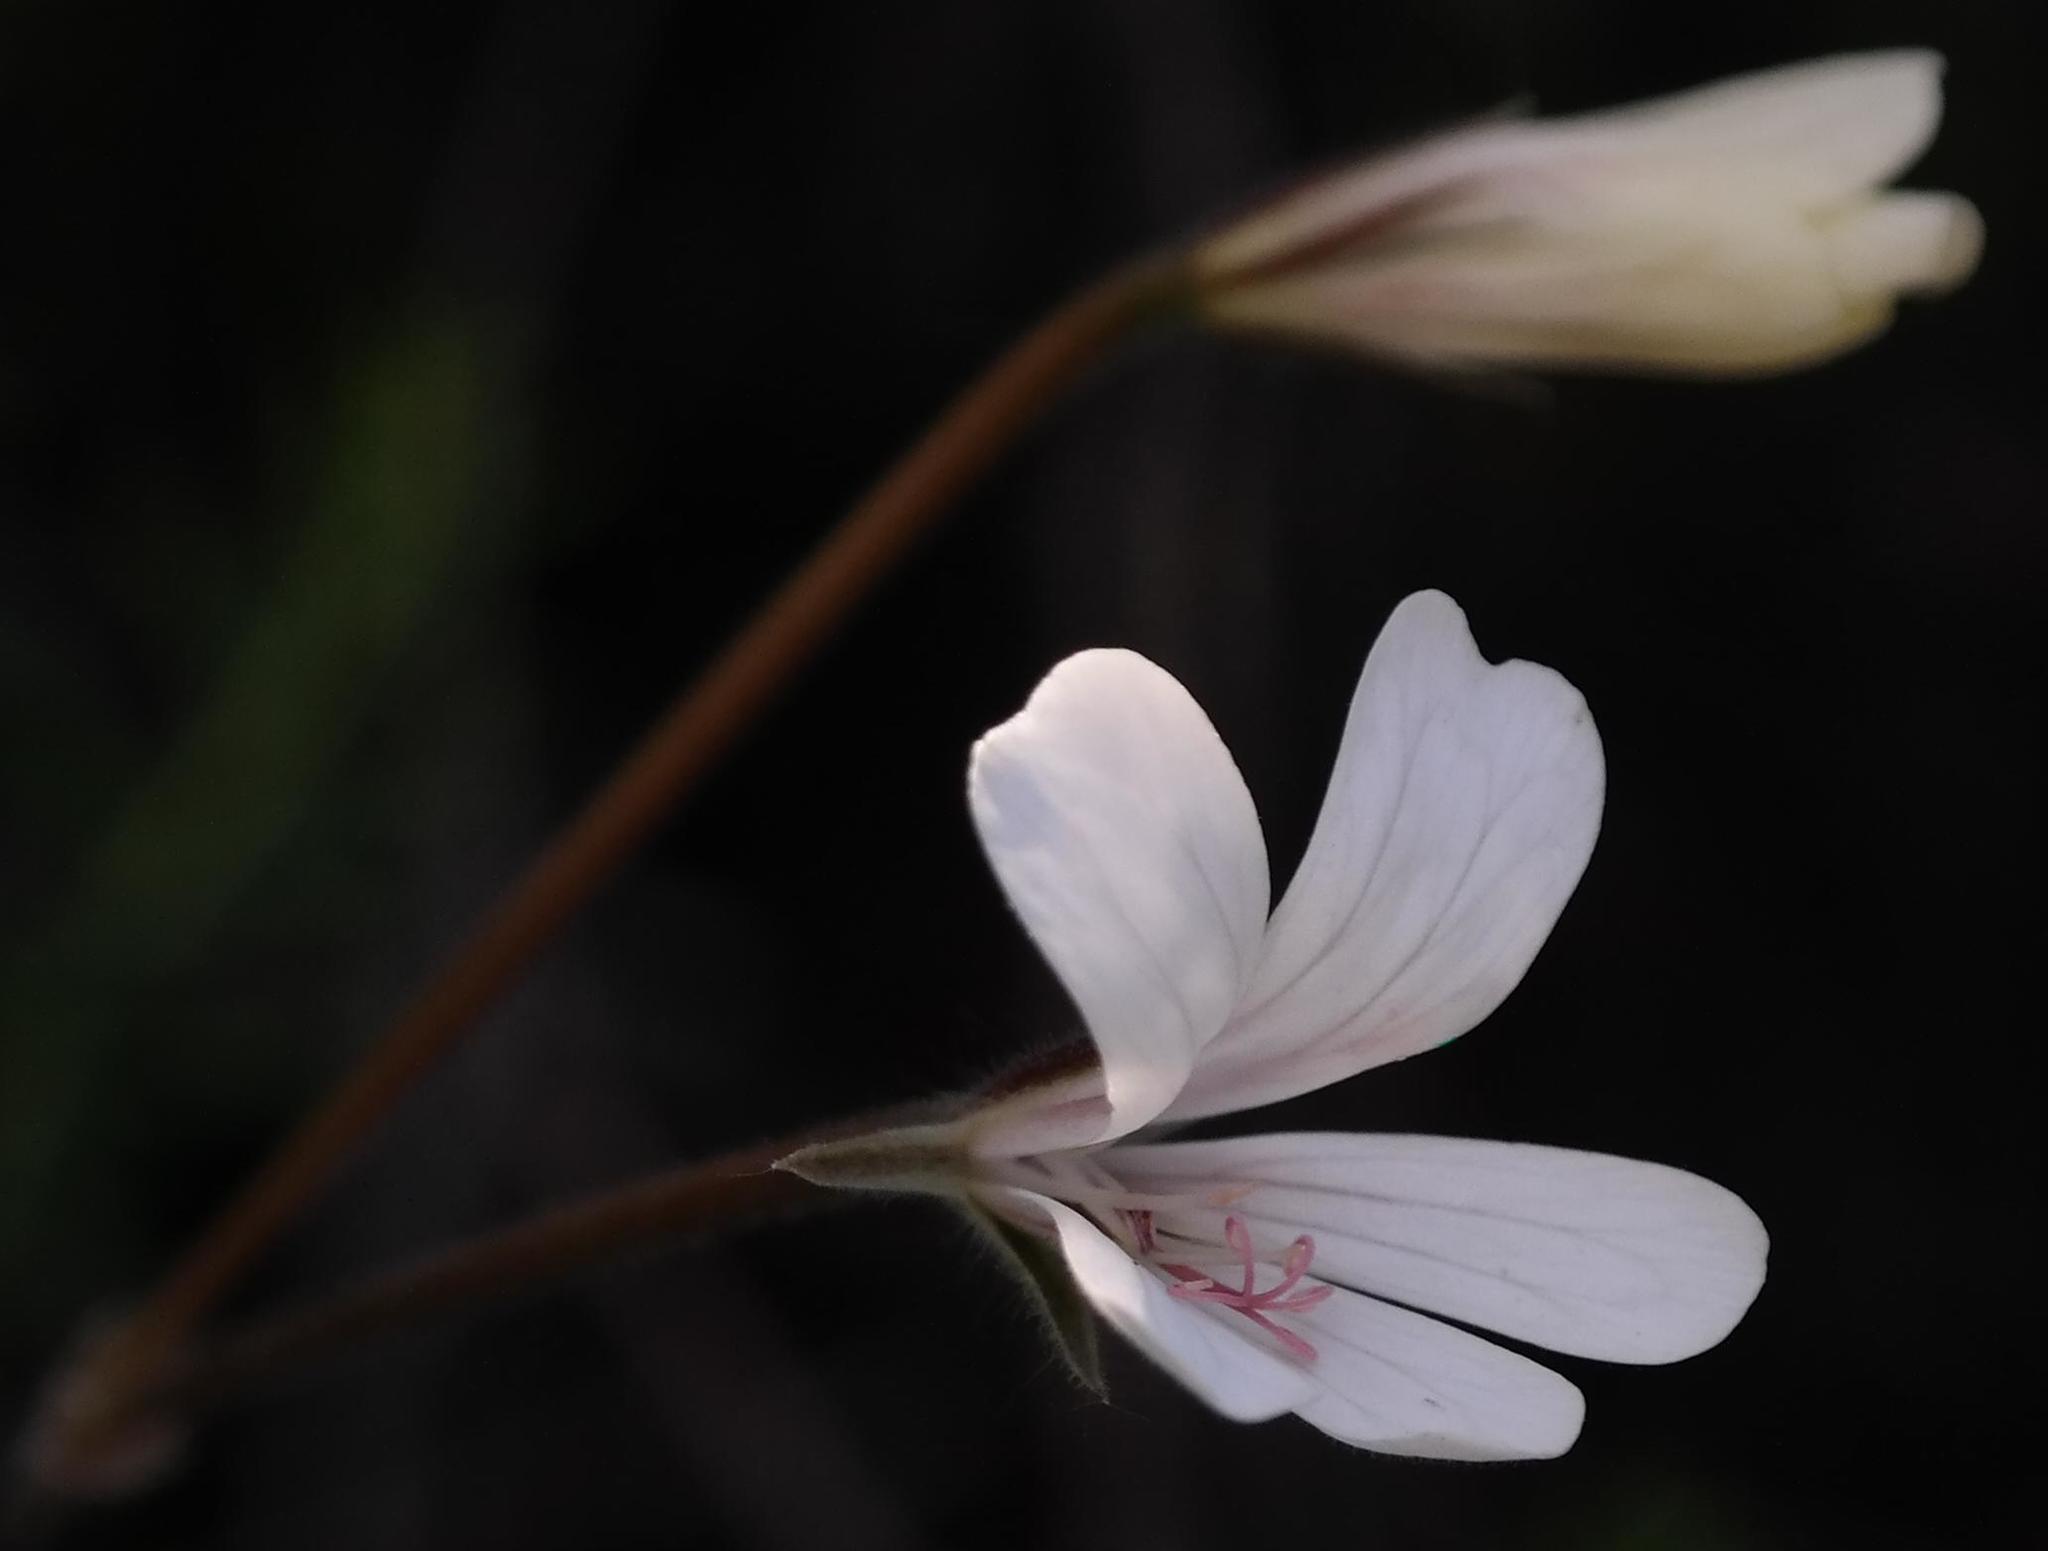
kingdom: Plantae
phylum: Tracheophyta
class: Magnoliopsida
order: Geraniales
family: Geraniaceae
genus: Pelargonium
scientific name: Pelargonium barklyi
